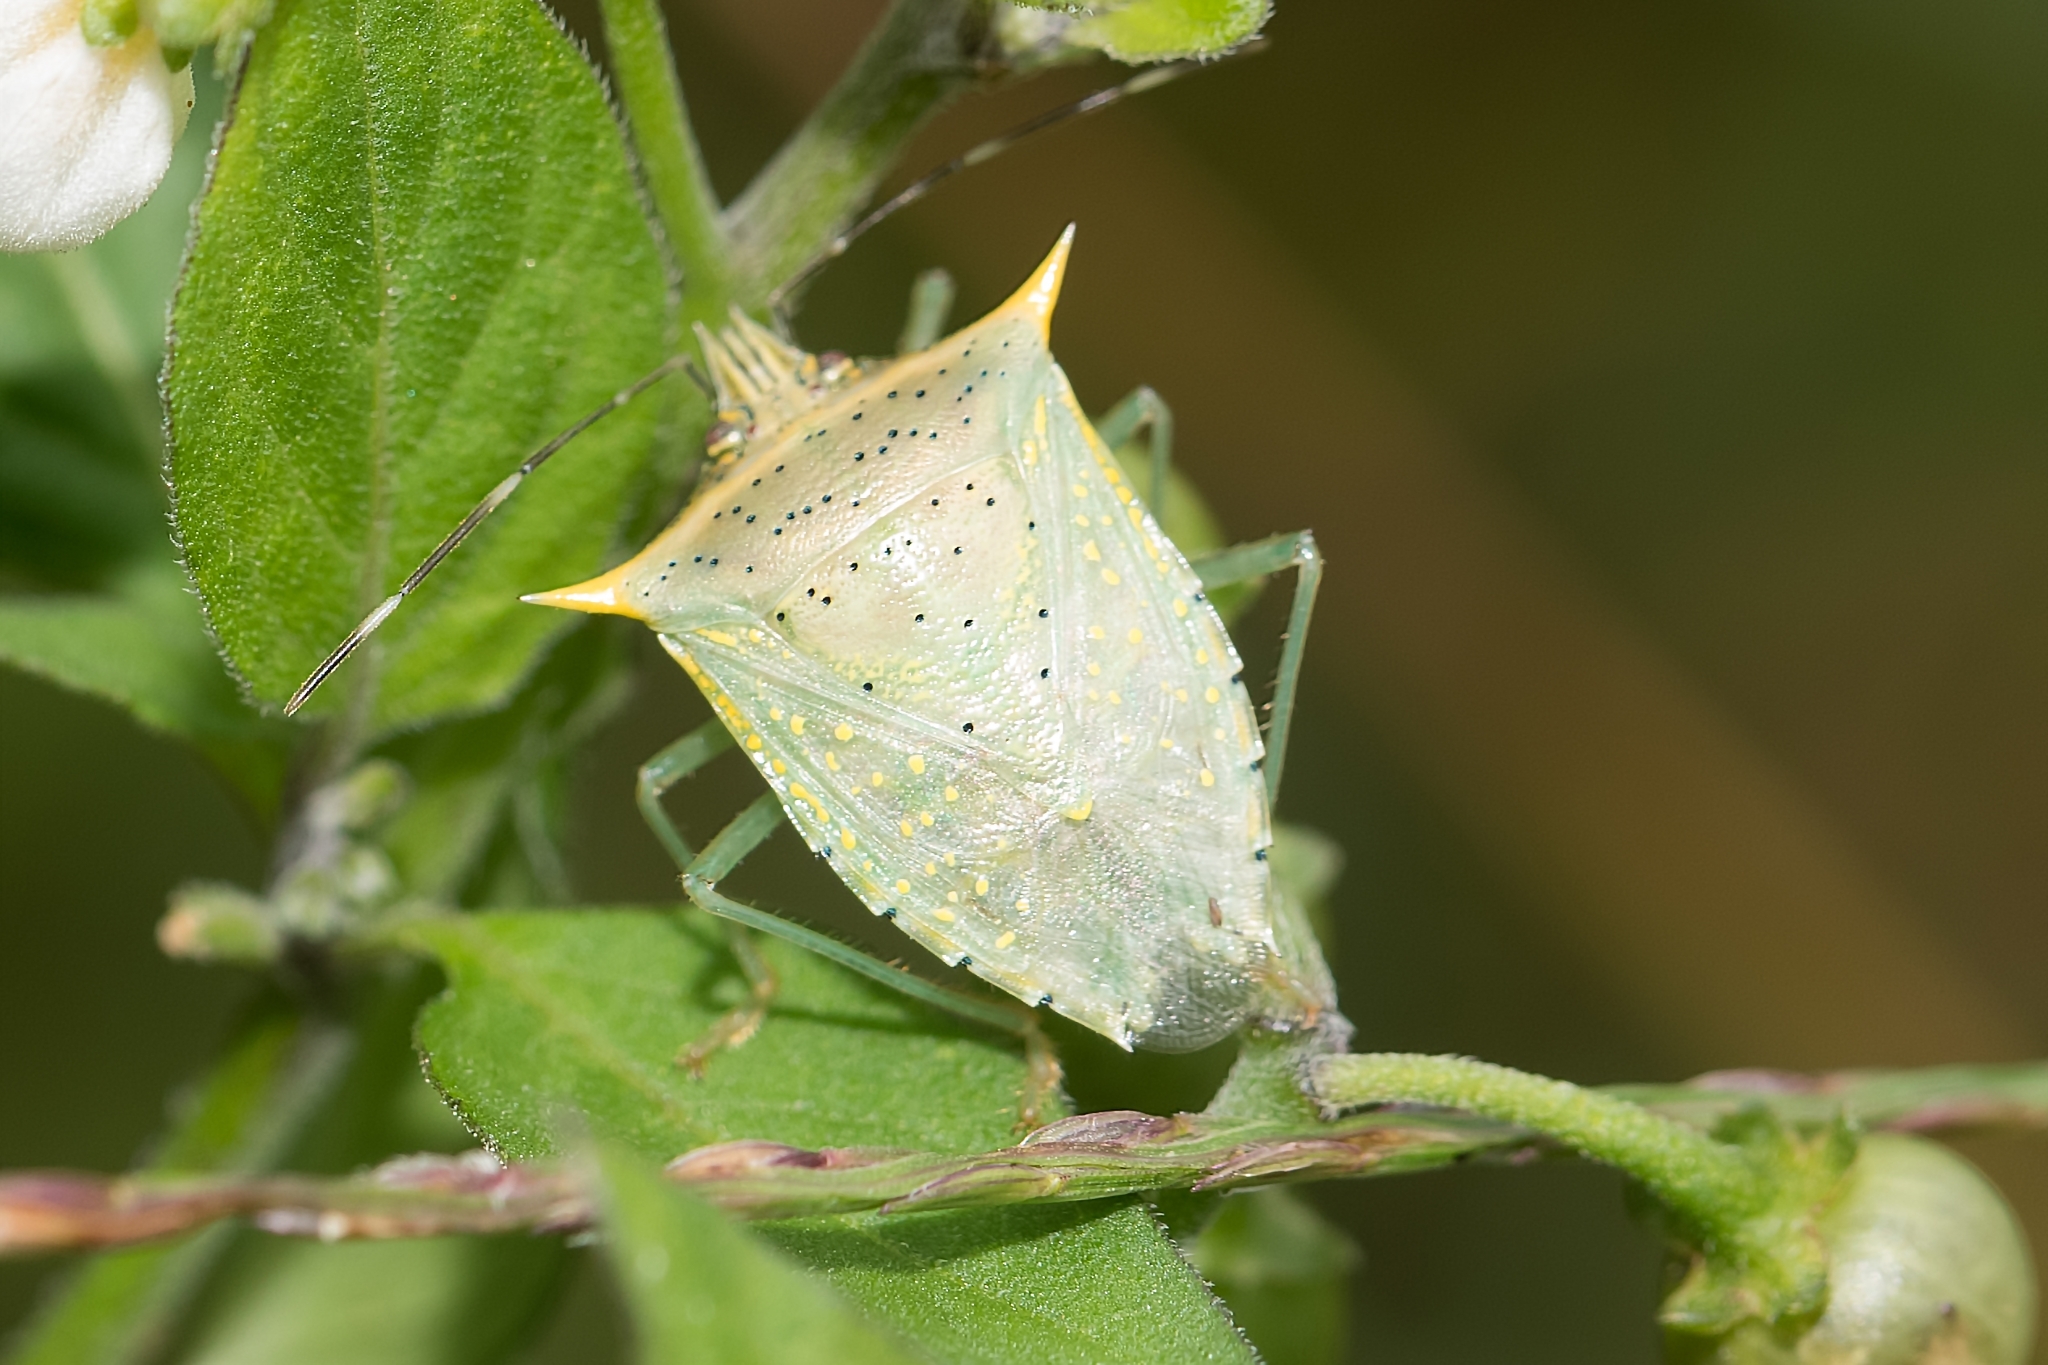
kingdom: Animalia
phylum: Arthropoda
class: Insecta
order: Hemiptera
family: Pentatomidae
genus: Arvelius
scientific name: Arvelius albopunctatus
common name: Tomato stink bug
